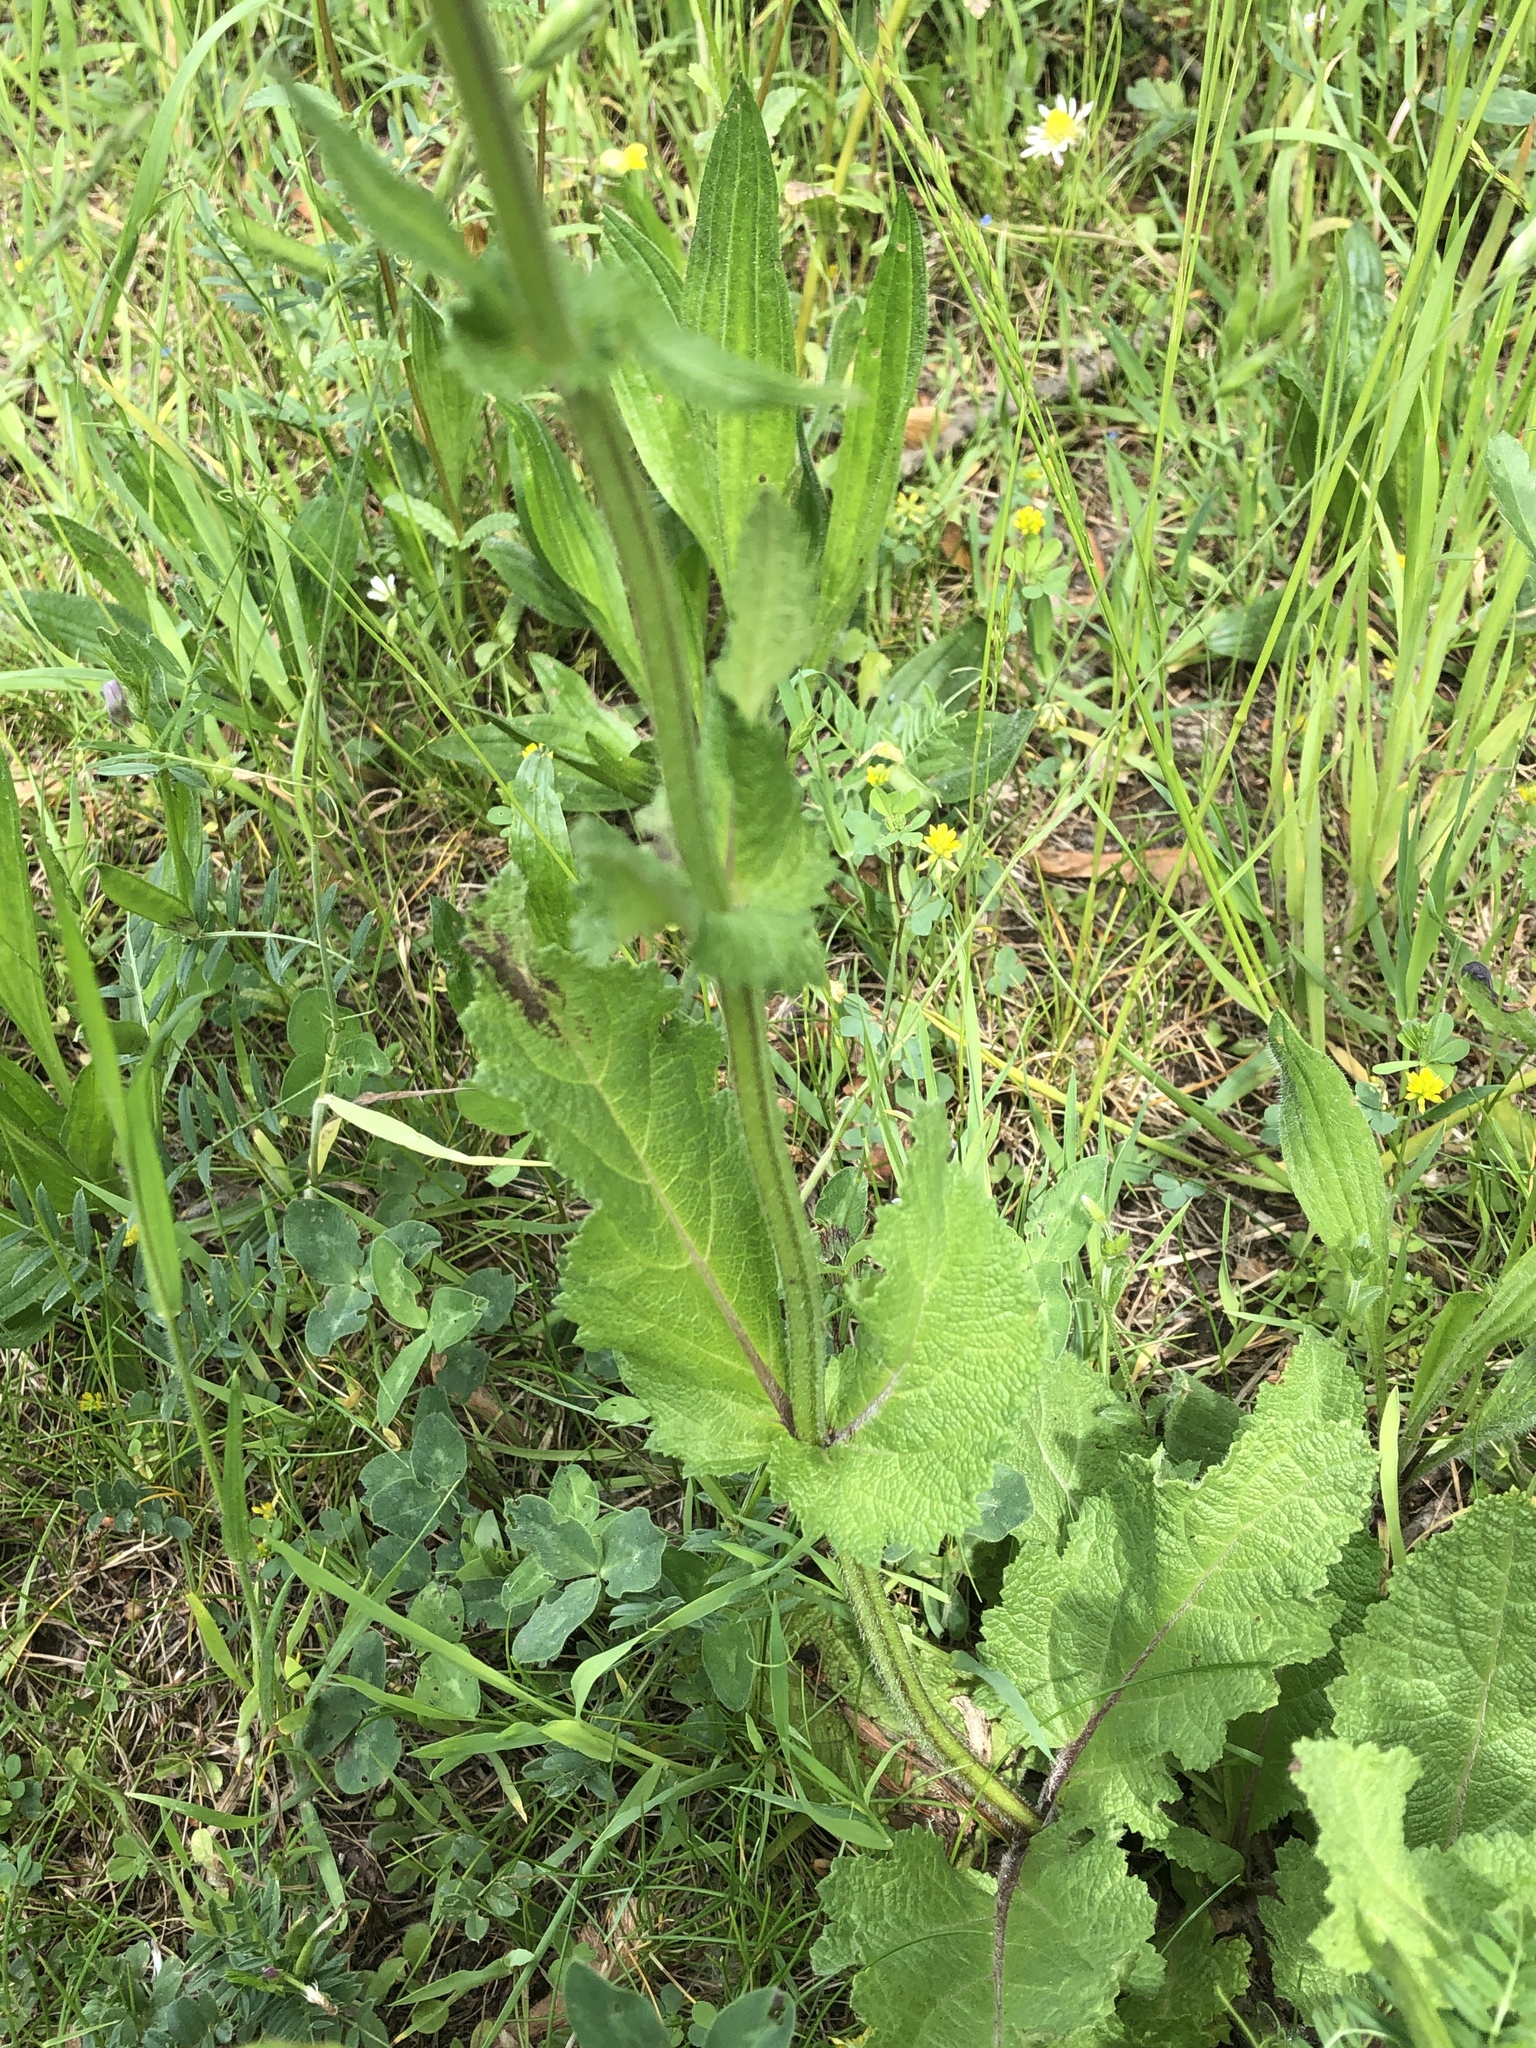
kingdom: Plantae
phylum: Tracheophyta
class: Magnoliopsida
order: Lamiales
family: Lamiaceae
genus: Salvia
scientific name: Salvia pratensis
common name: Meadow sage
